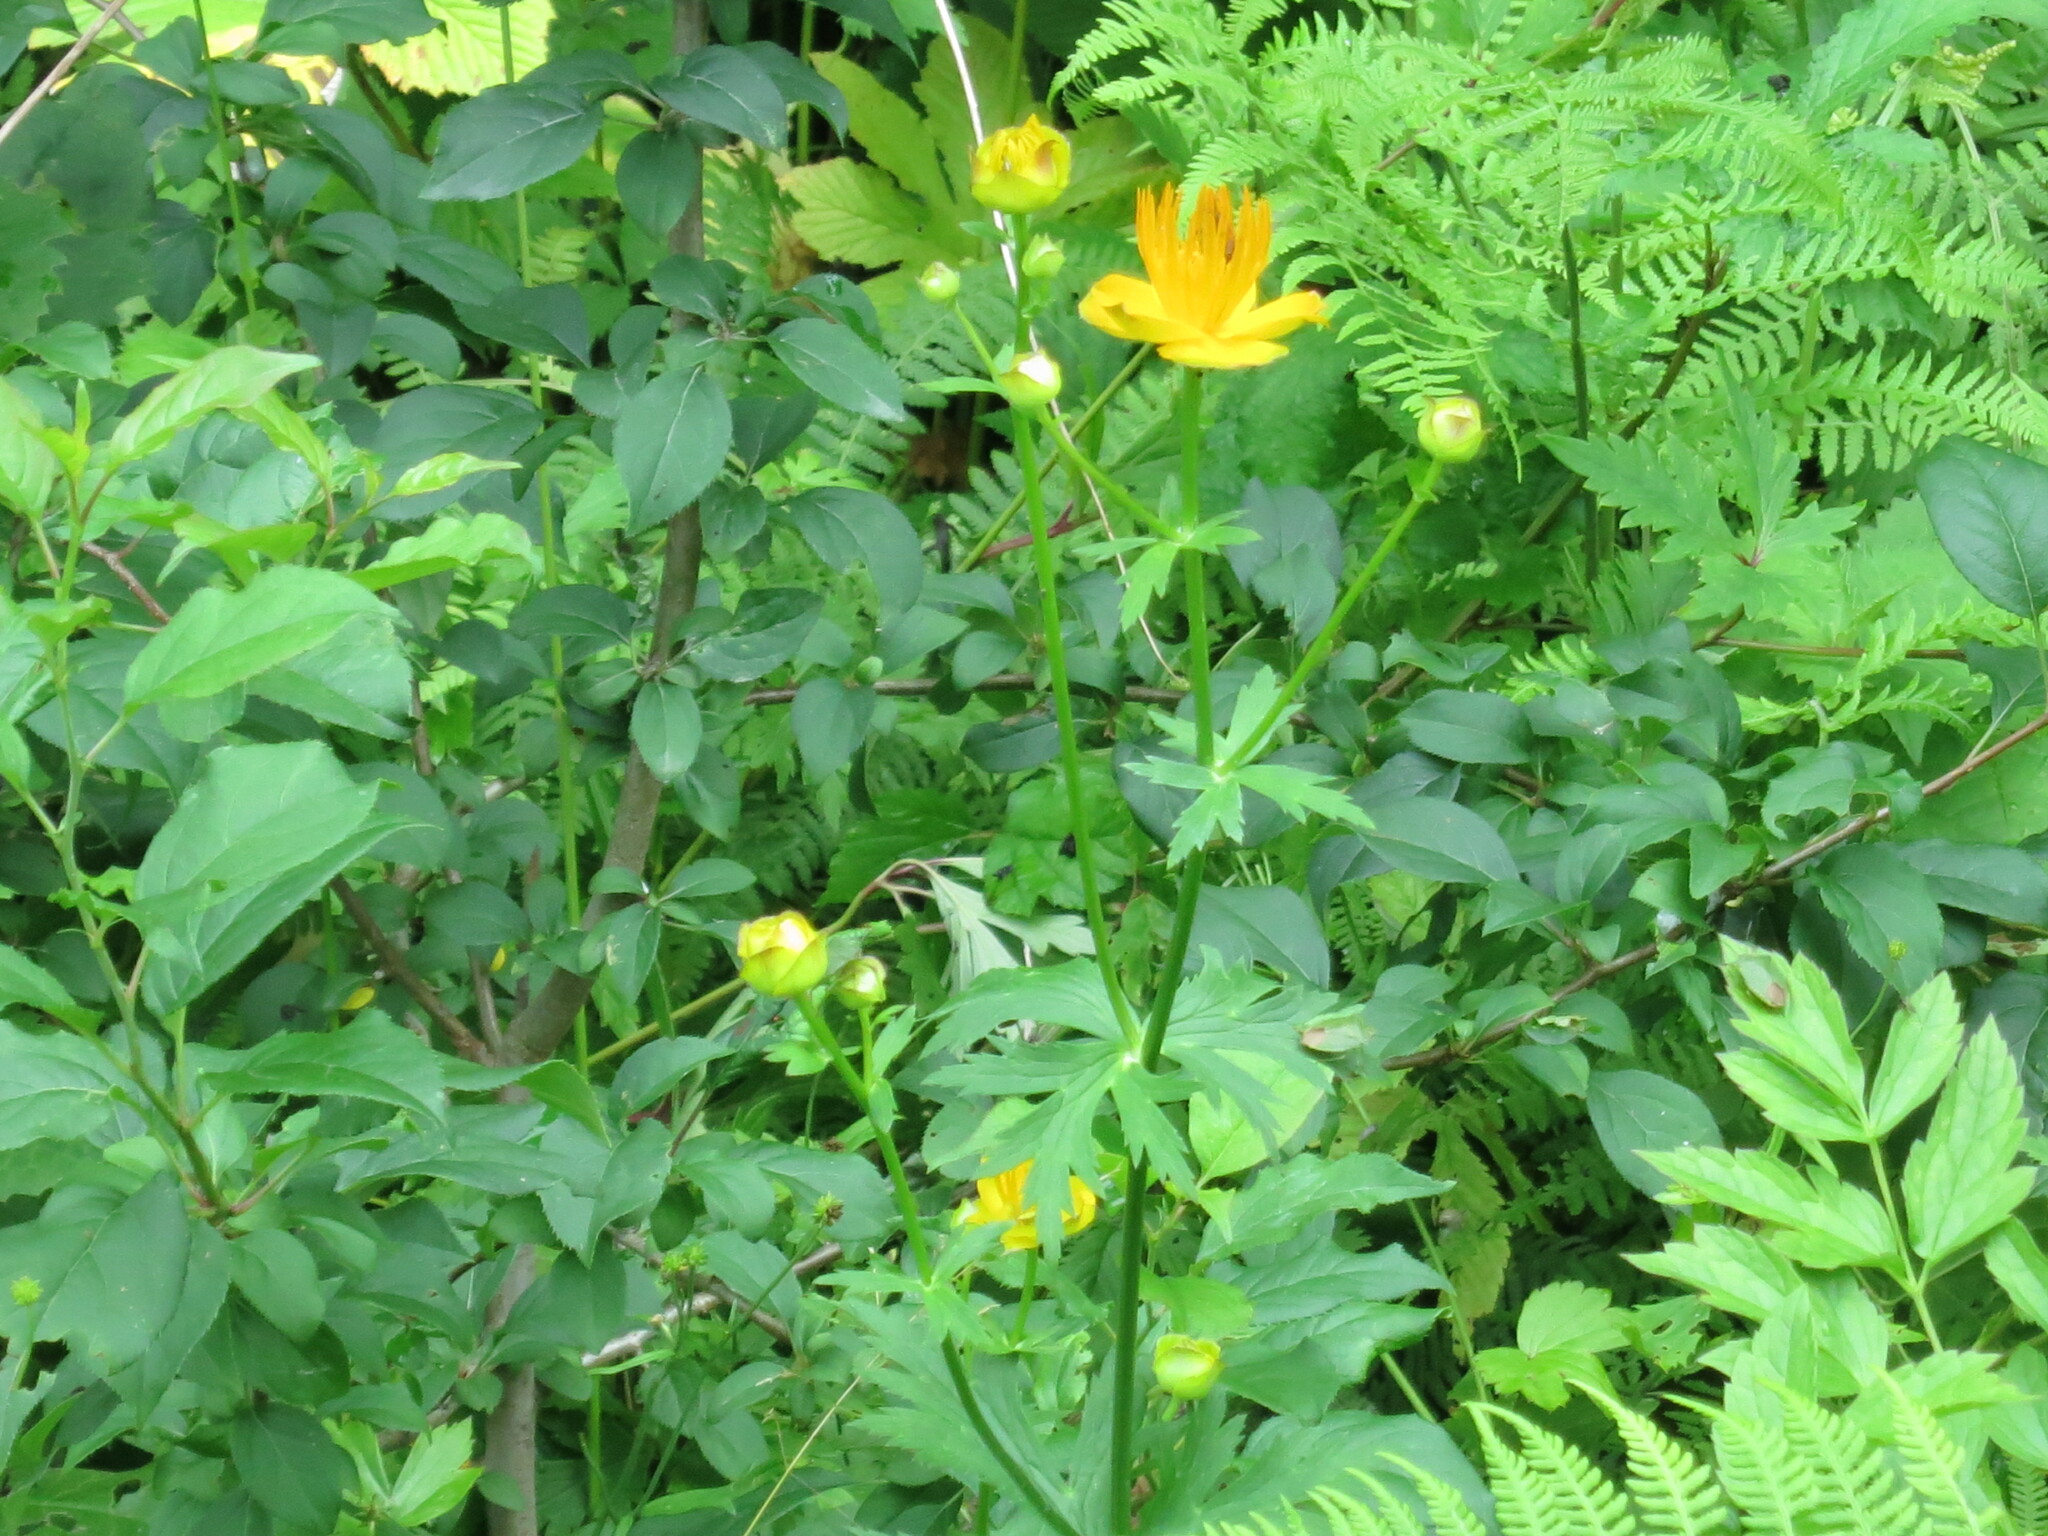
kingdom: Plantae
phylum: Tracheophyta
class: Magnoliopsida
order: Ranunculales
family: Ranunculaceae
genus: Trollius
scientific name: Trollius chinensis
